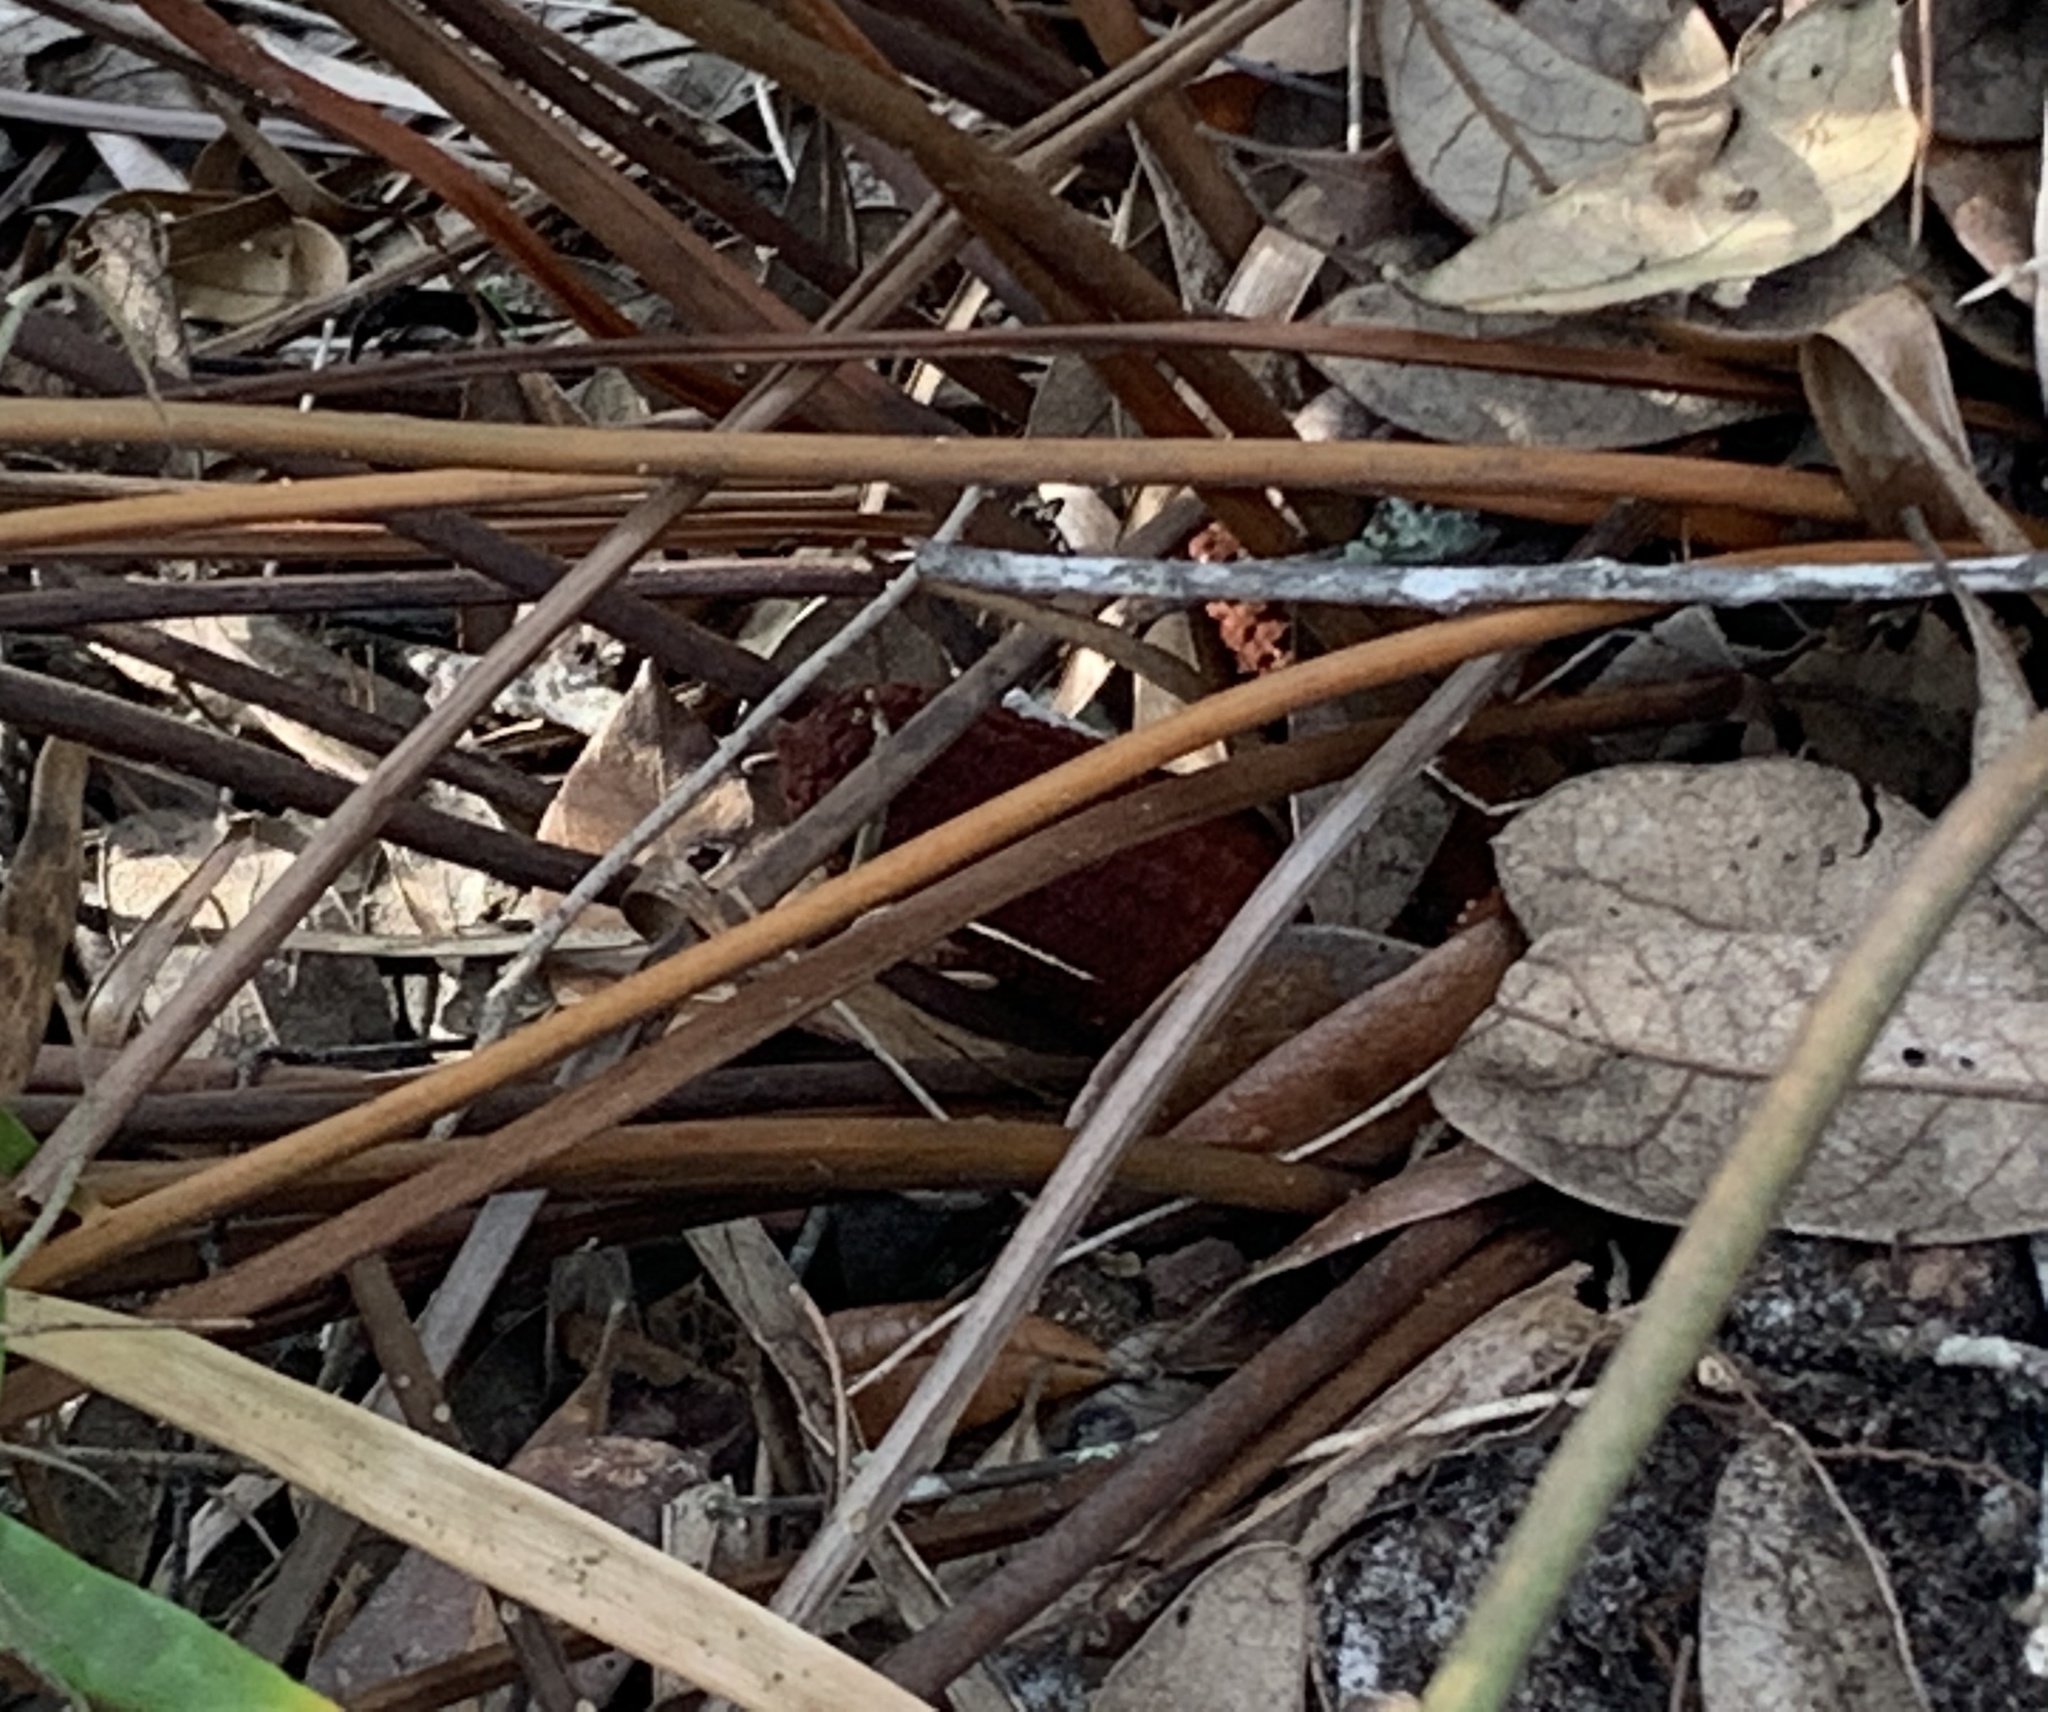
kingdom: Plantae
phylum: Tracheophyta
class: Cycadopsida
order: Cycadales
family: Zamiaceae
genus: Zamia
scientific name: Zamia integrifolia
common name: Florida arrowroot
